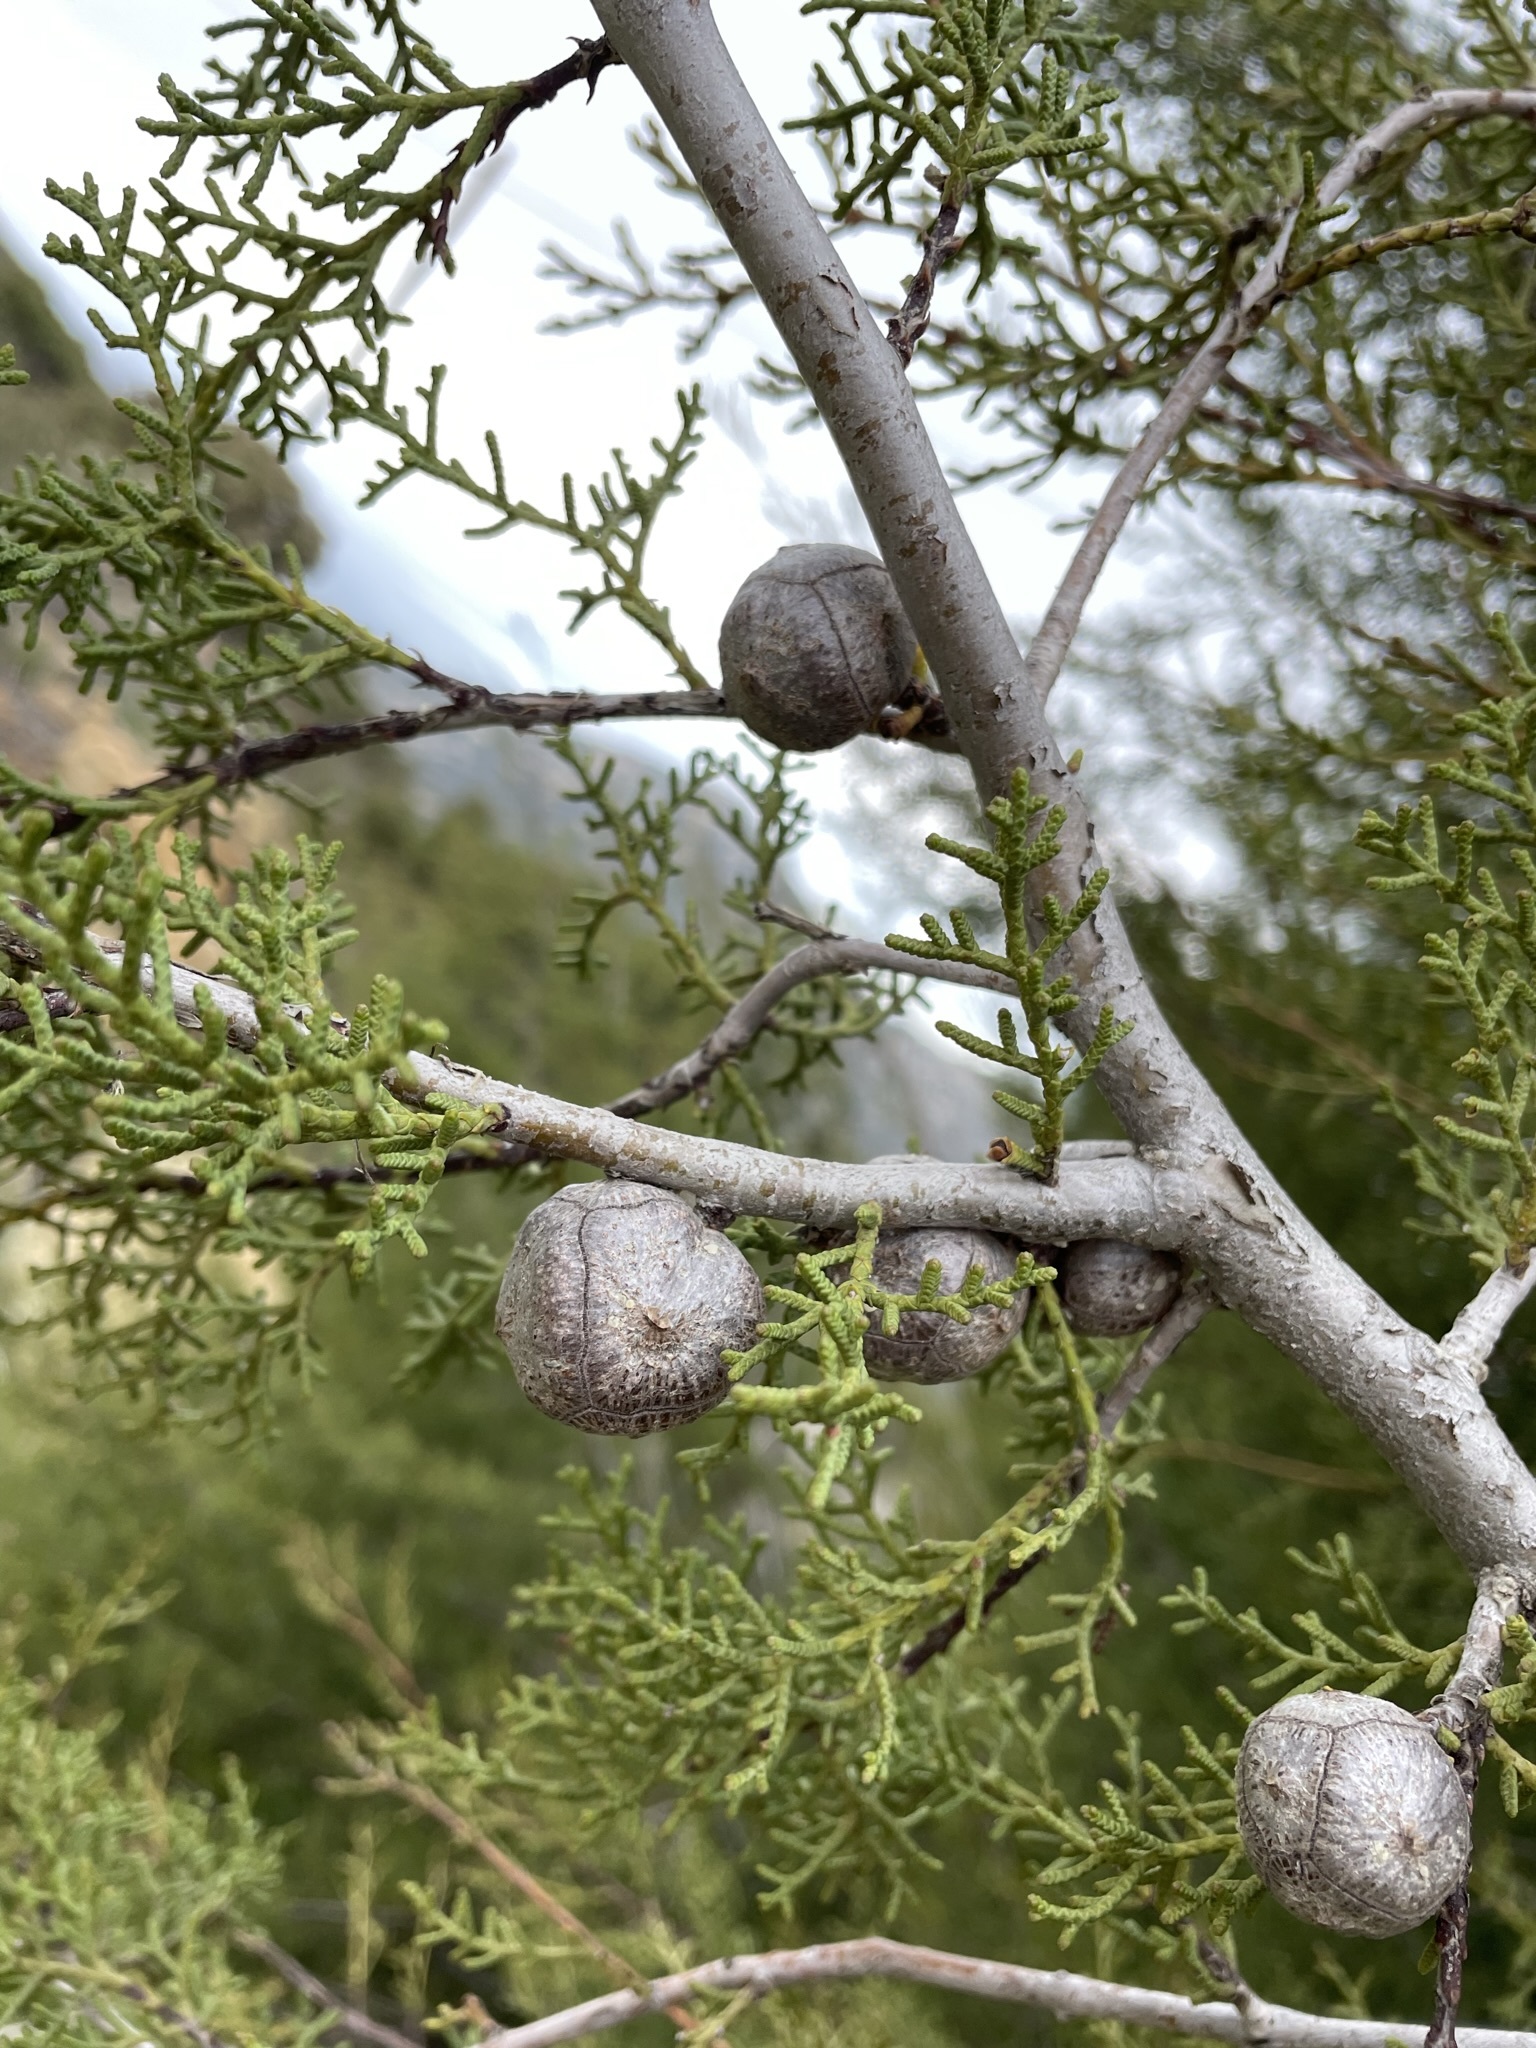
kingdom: Plantae
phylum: Tracheophyta
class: Pinopsida
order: Pinales
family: Cupressaceae
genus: Cupressus
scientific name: Cupressus guadalupensis
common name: Forbes cypress
